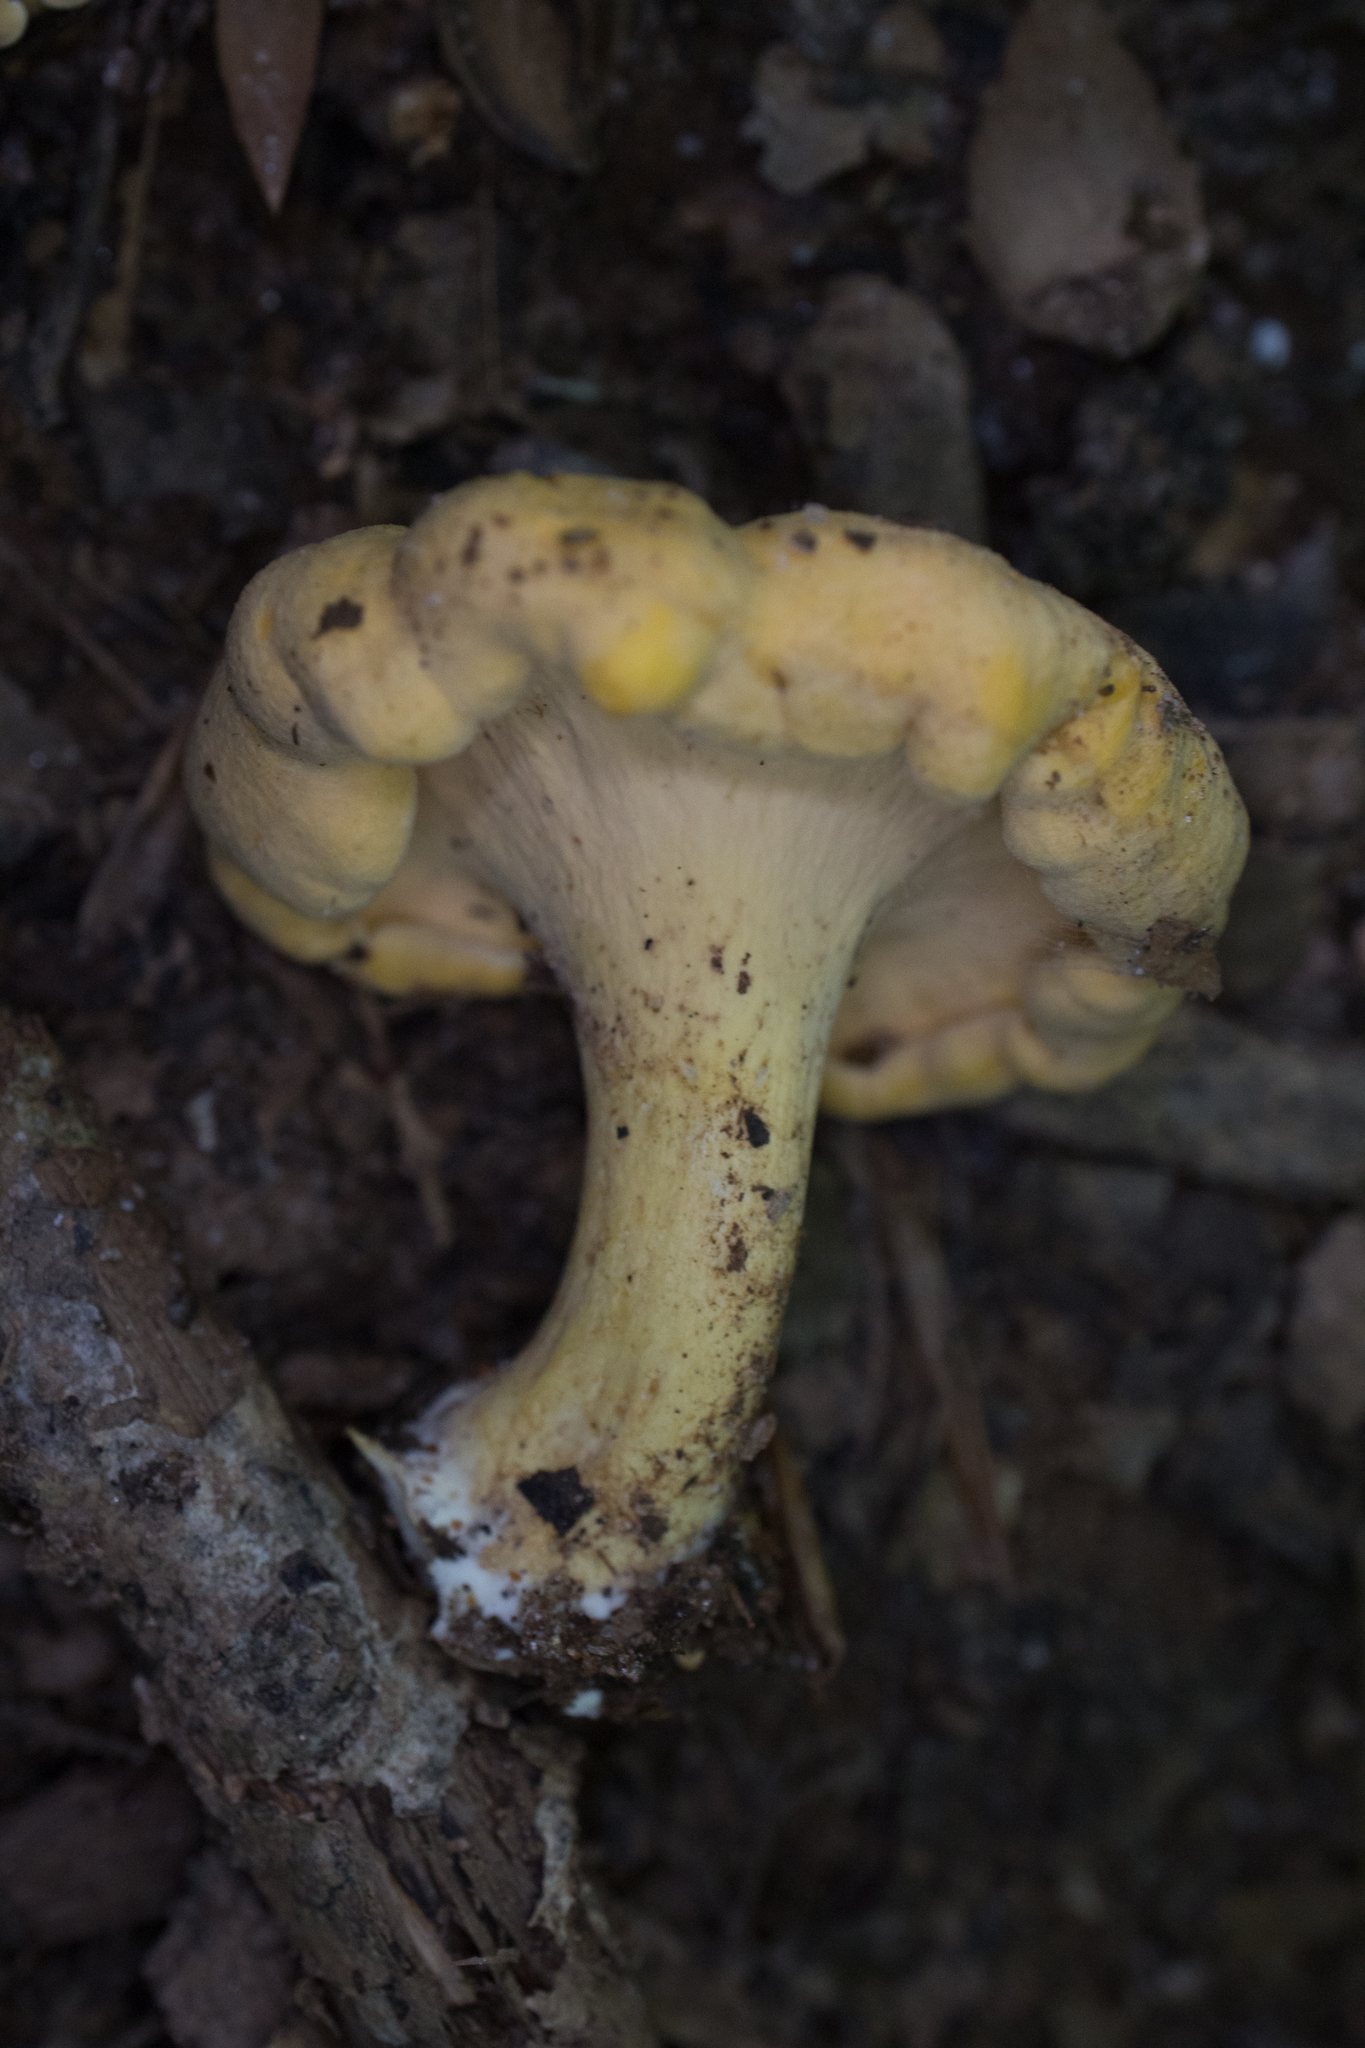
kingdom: Fungi
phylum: Basidiomycota
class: Agaricomycetes
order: Cantharellales
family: Hydnaceae
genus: Cantharellus
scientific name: Cantharellus lateritius
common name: Smooth chanterelle
